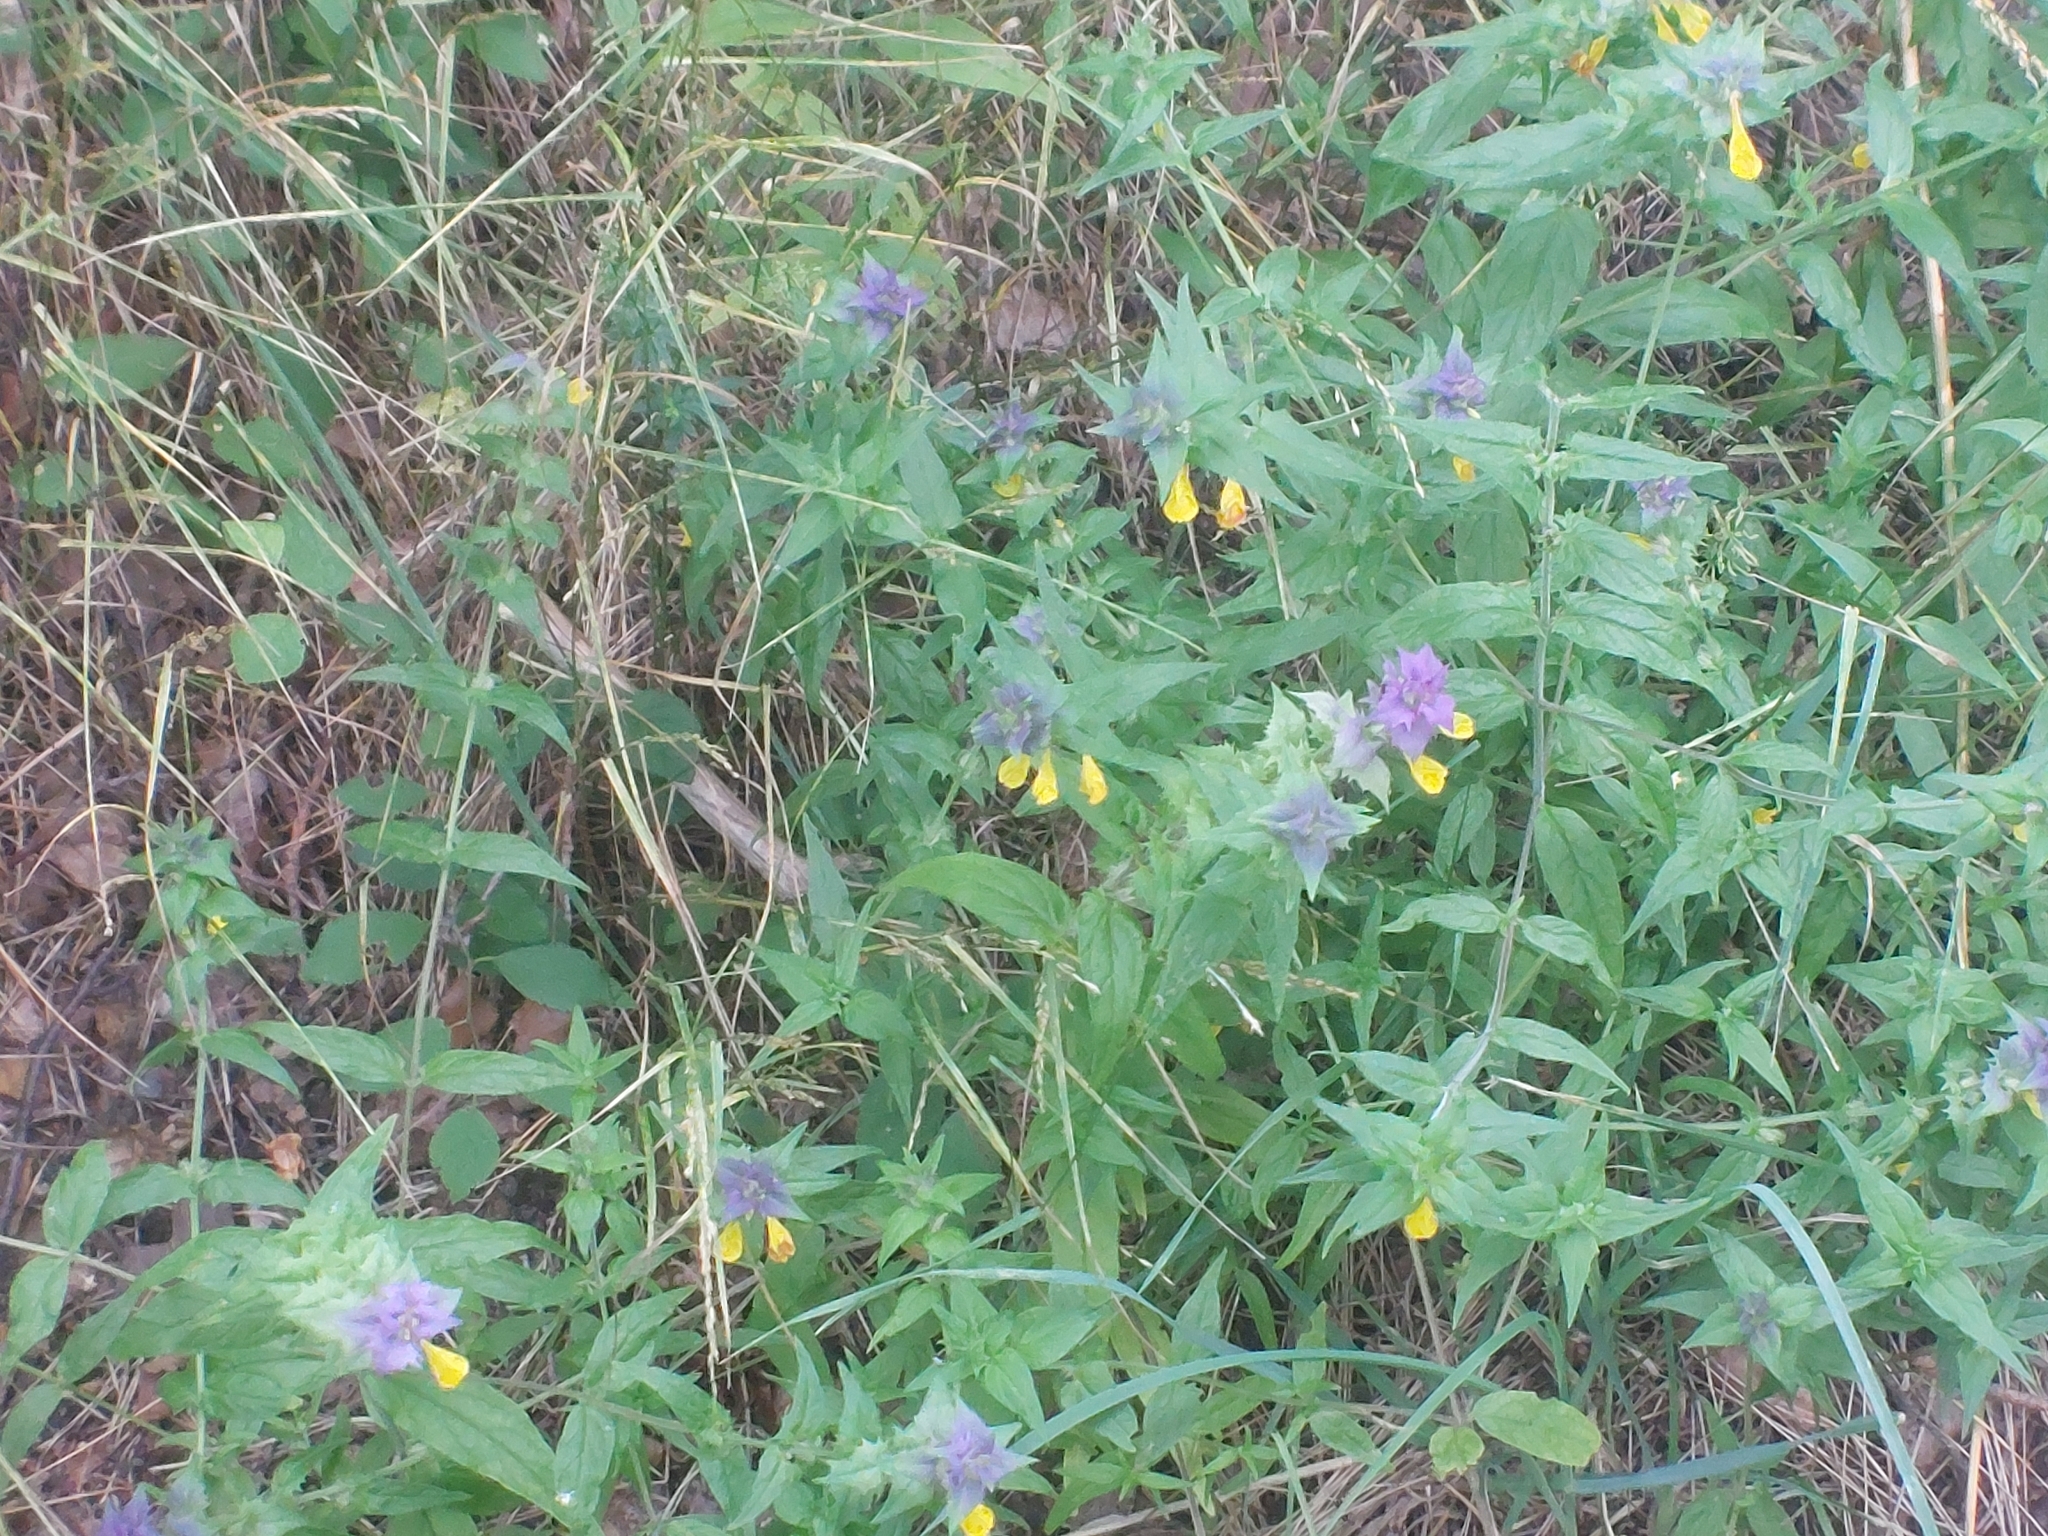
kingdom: Plantae
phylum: Tracheophyta
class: Magnoliopsida
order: Lamiales
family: Orobanchaceae
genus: Melampyrum
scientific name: Melampyrum nemorosum
